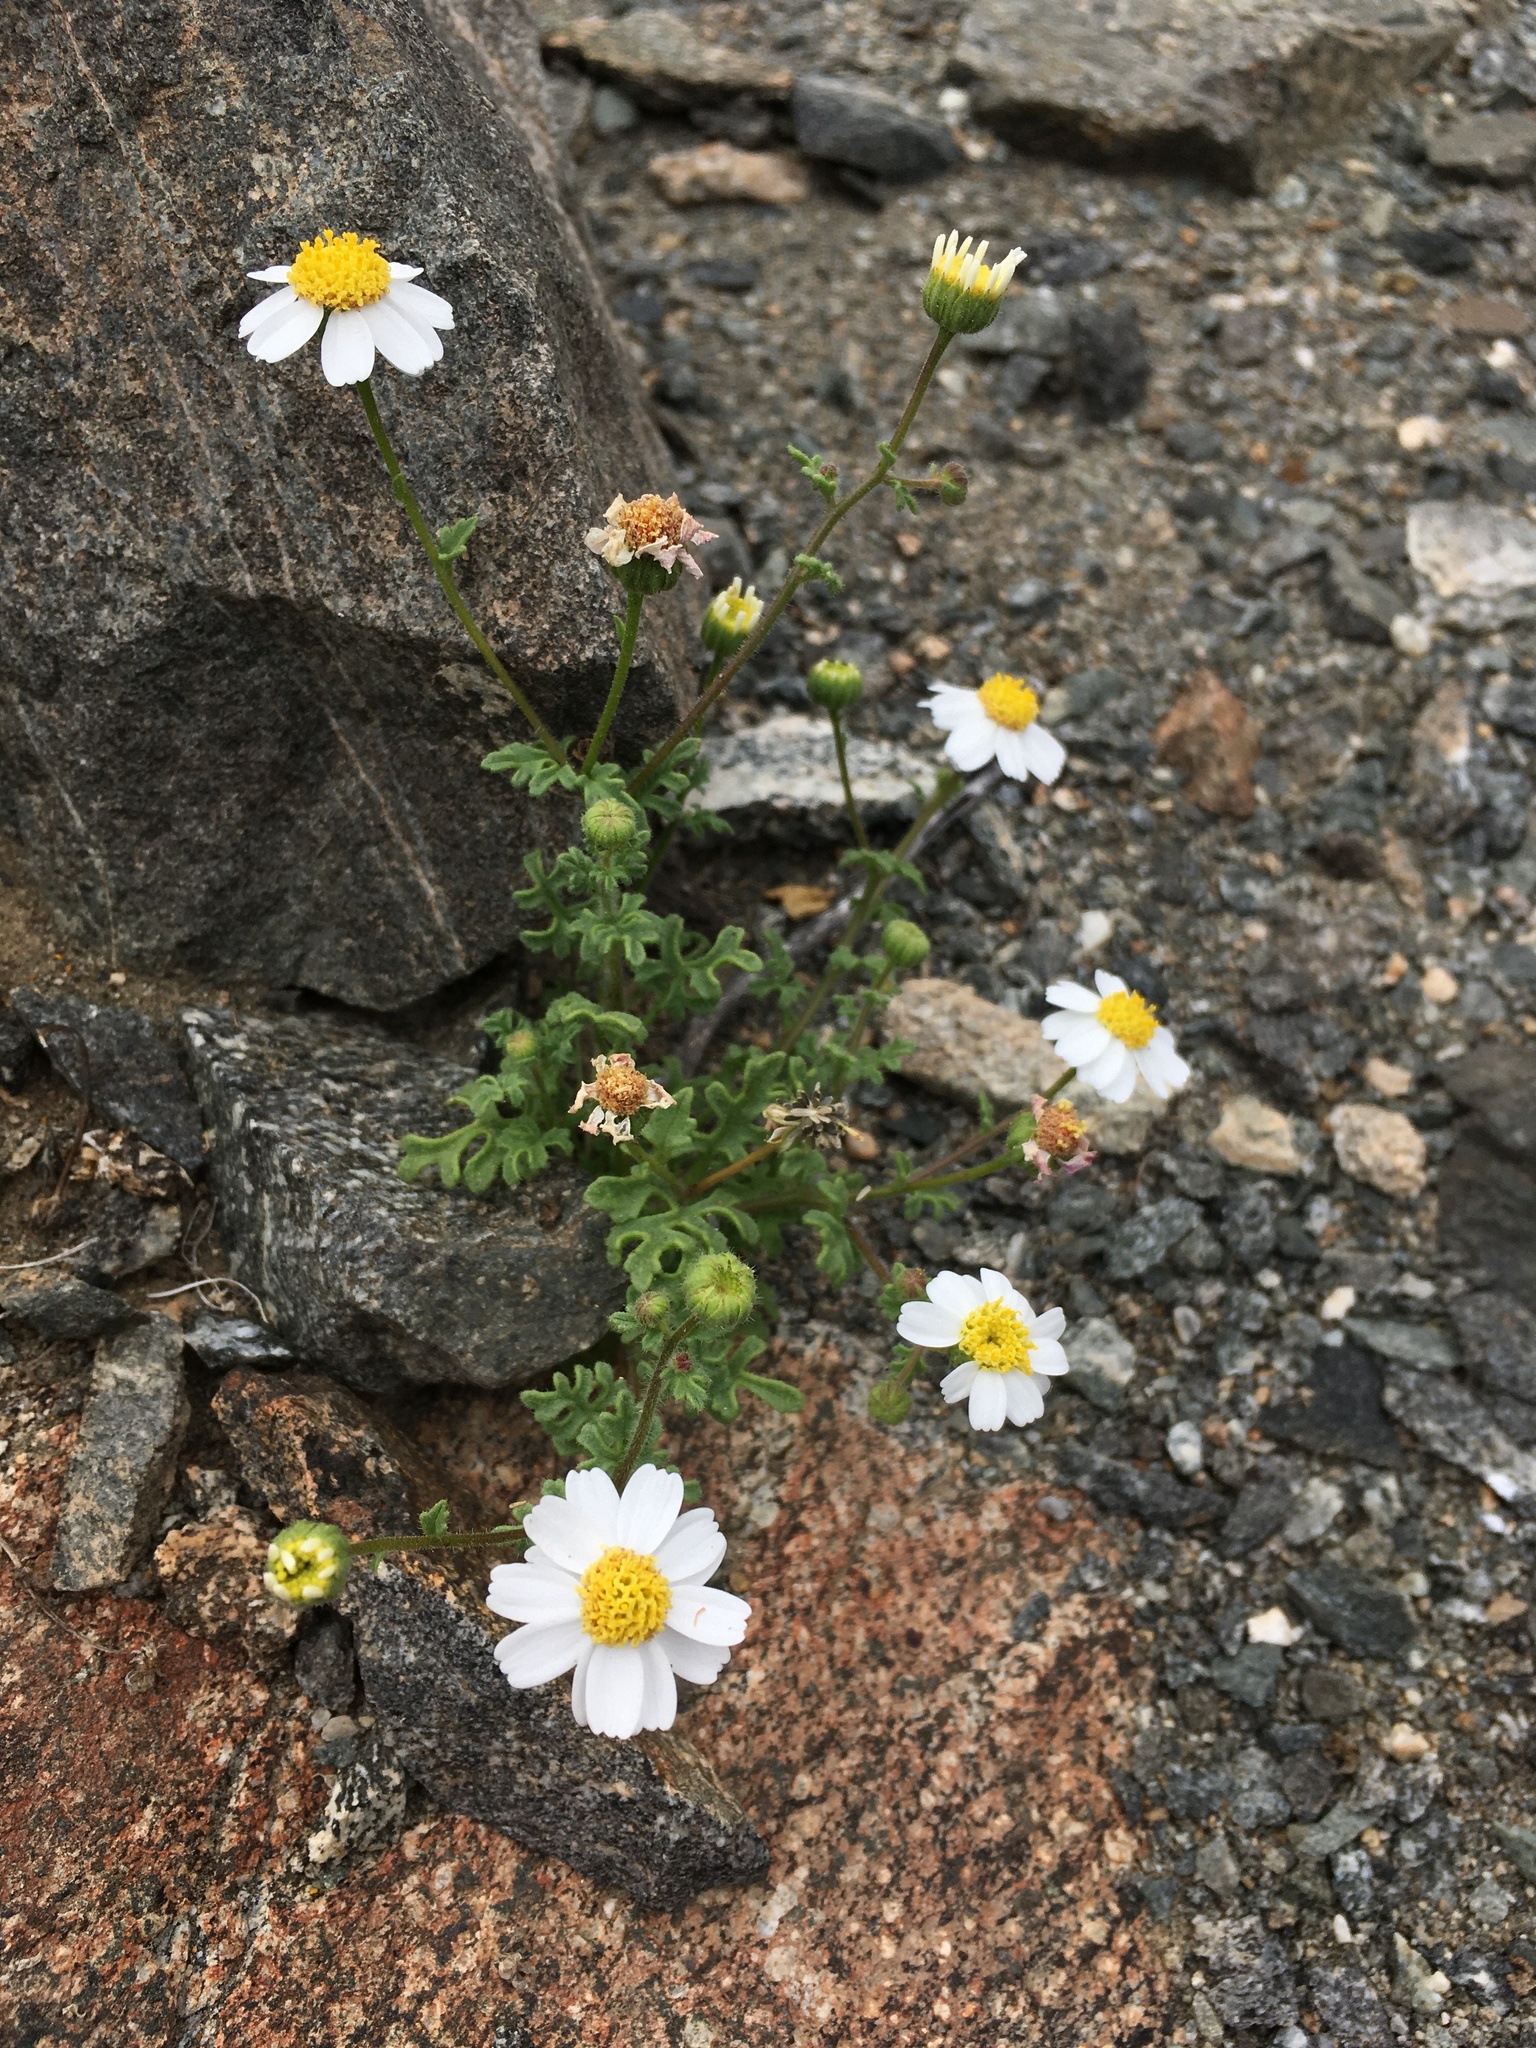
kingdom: Plantae
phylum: Tracheophyta
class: Magnoliopsida
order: Asterales
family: Asteraceae
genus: Laphamia
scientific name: Laphamia emoryi
